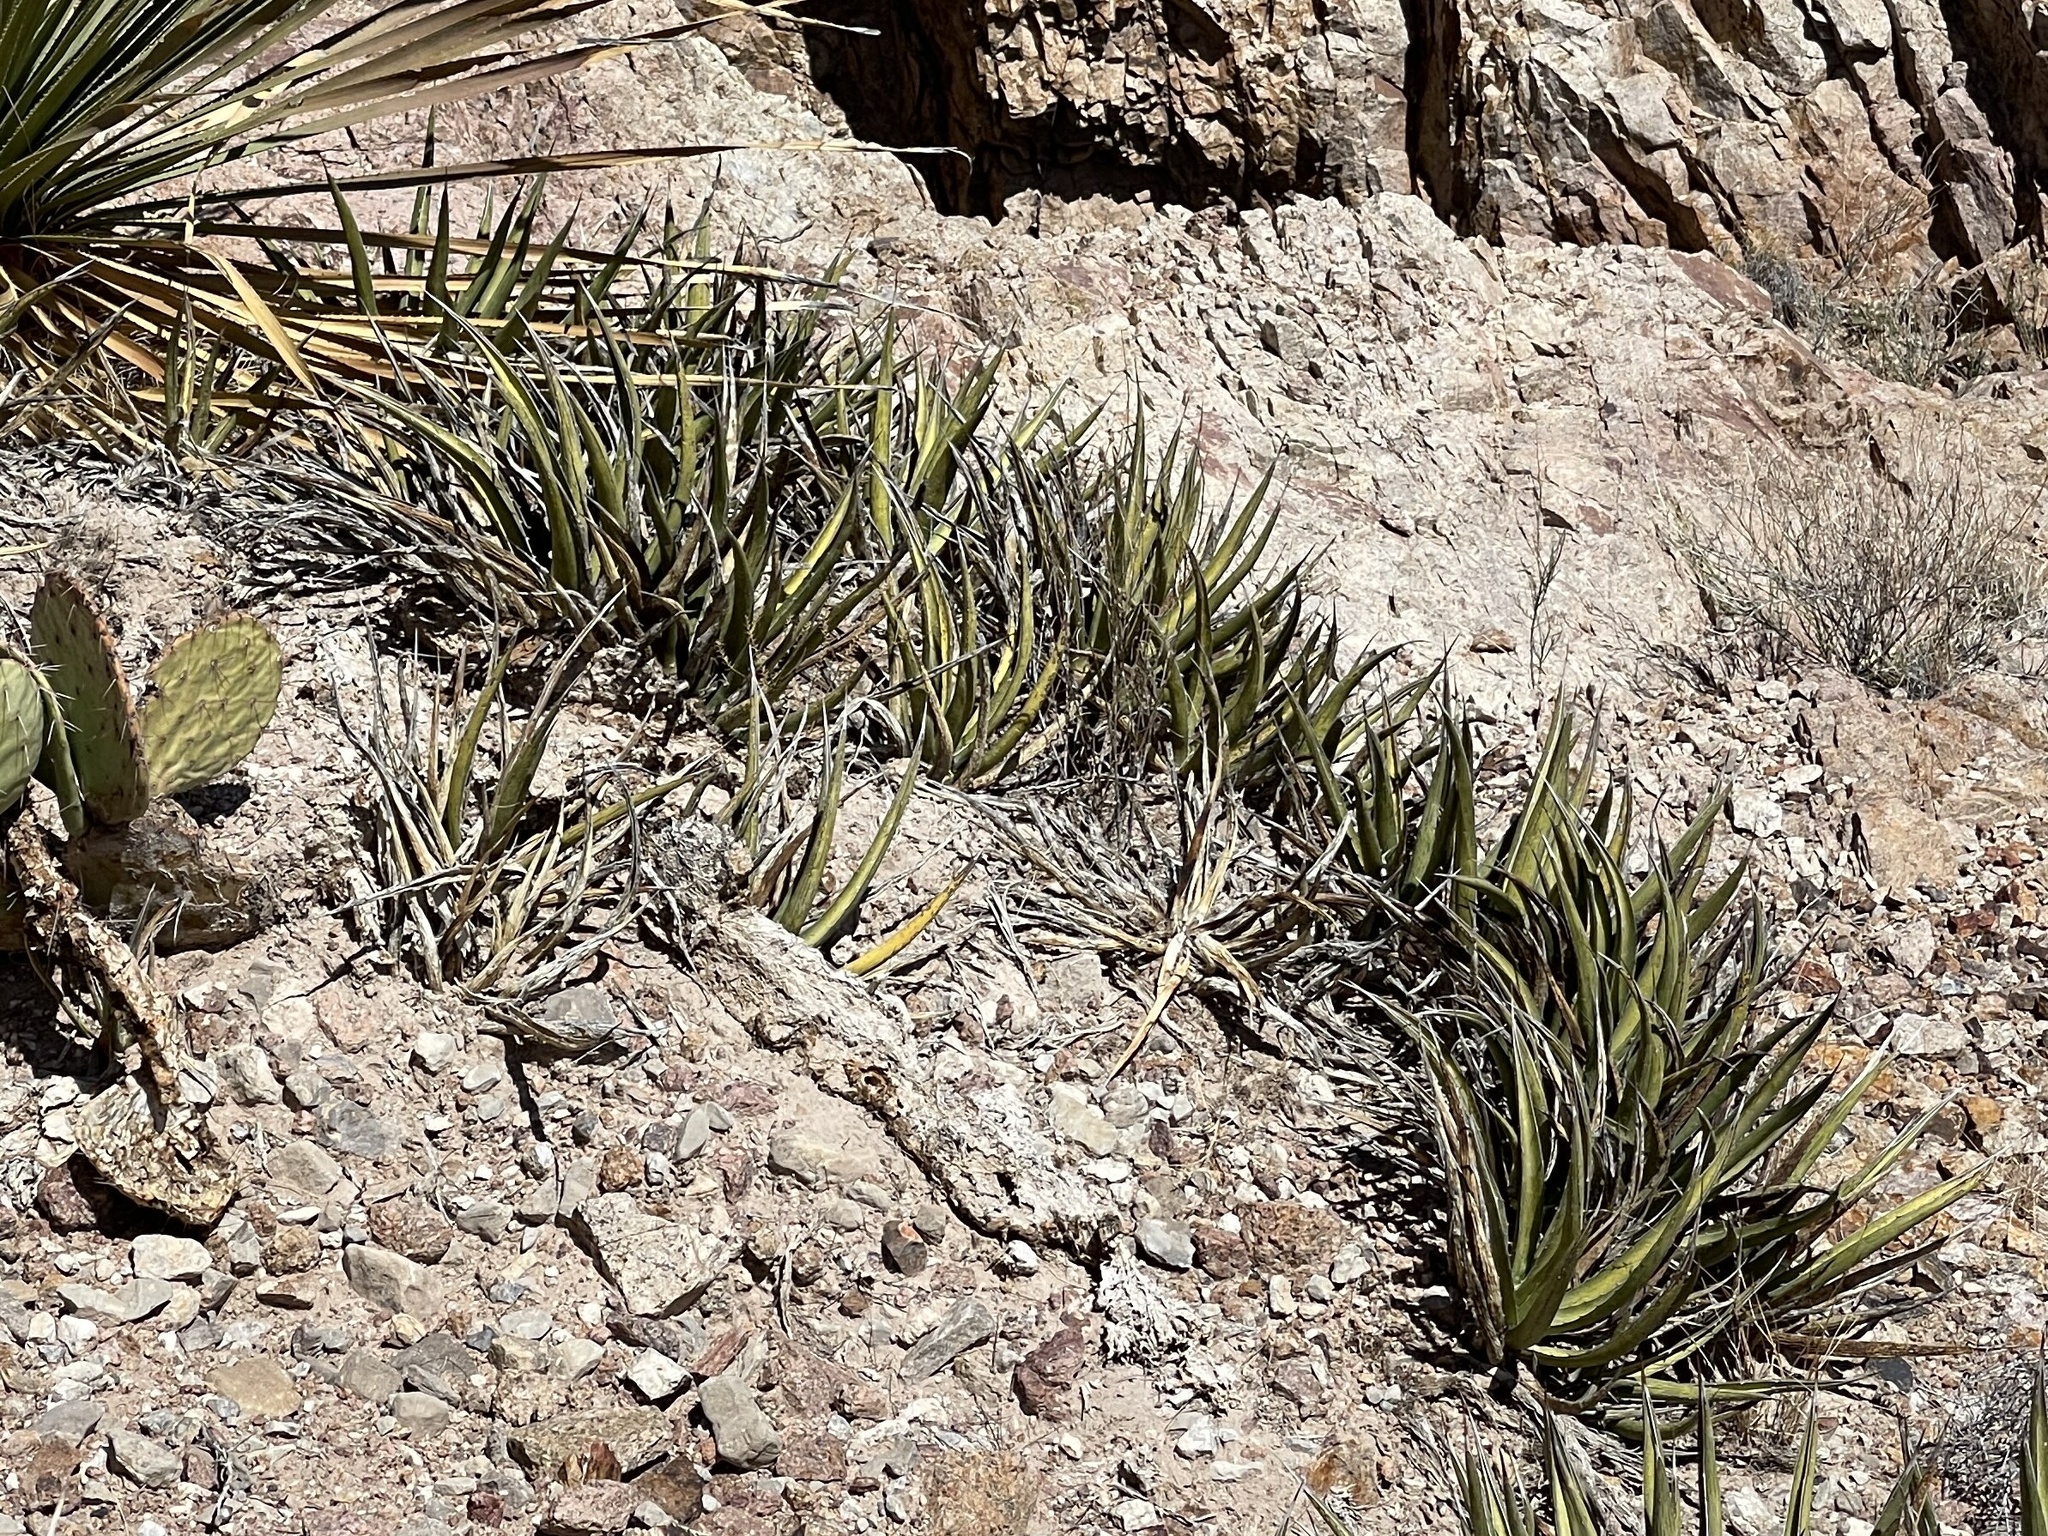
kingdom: Plantae
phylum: Tracheophyta
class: Liliopsida
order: Asparagales
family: Asparagaceae
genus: Agave
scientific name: Agave lechuguilla
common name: Lecheguilla agave
